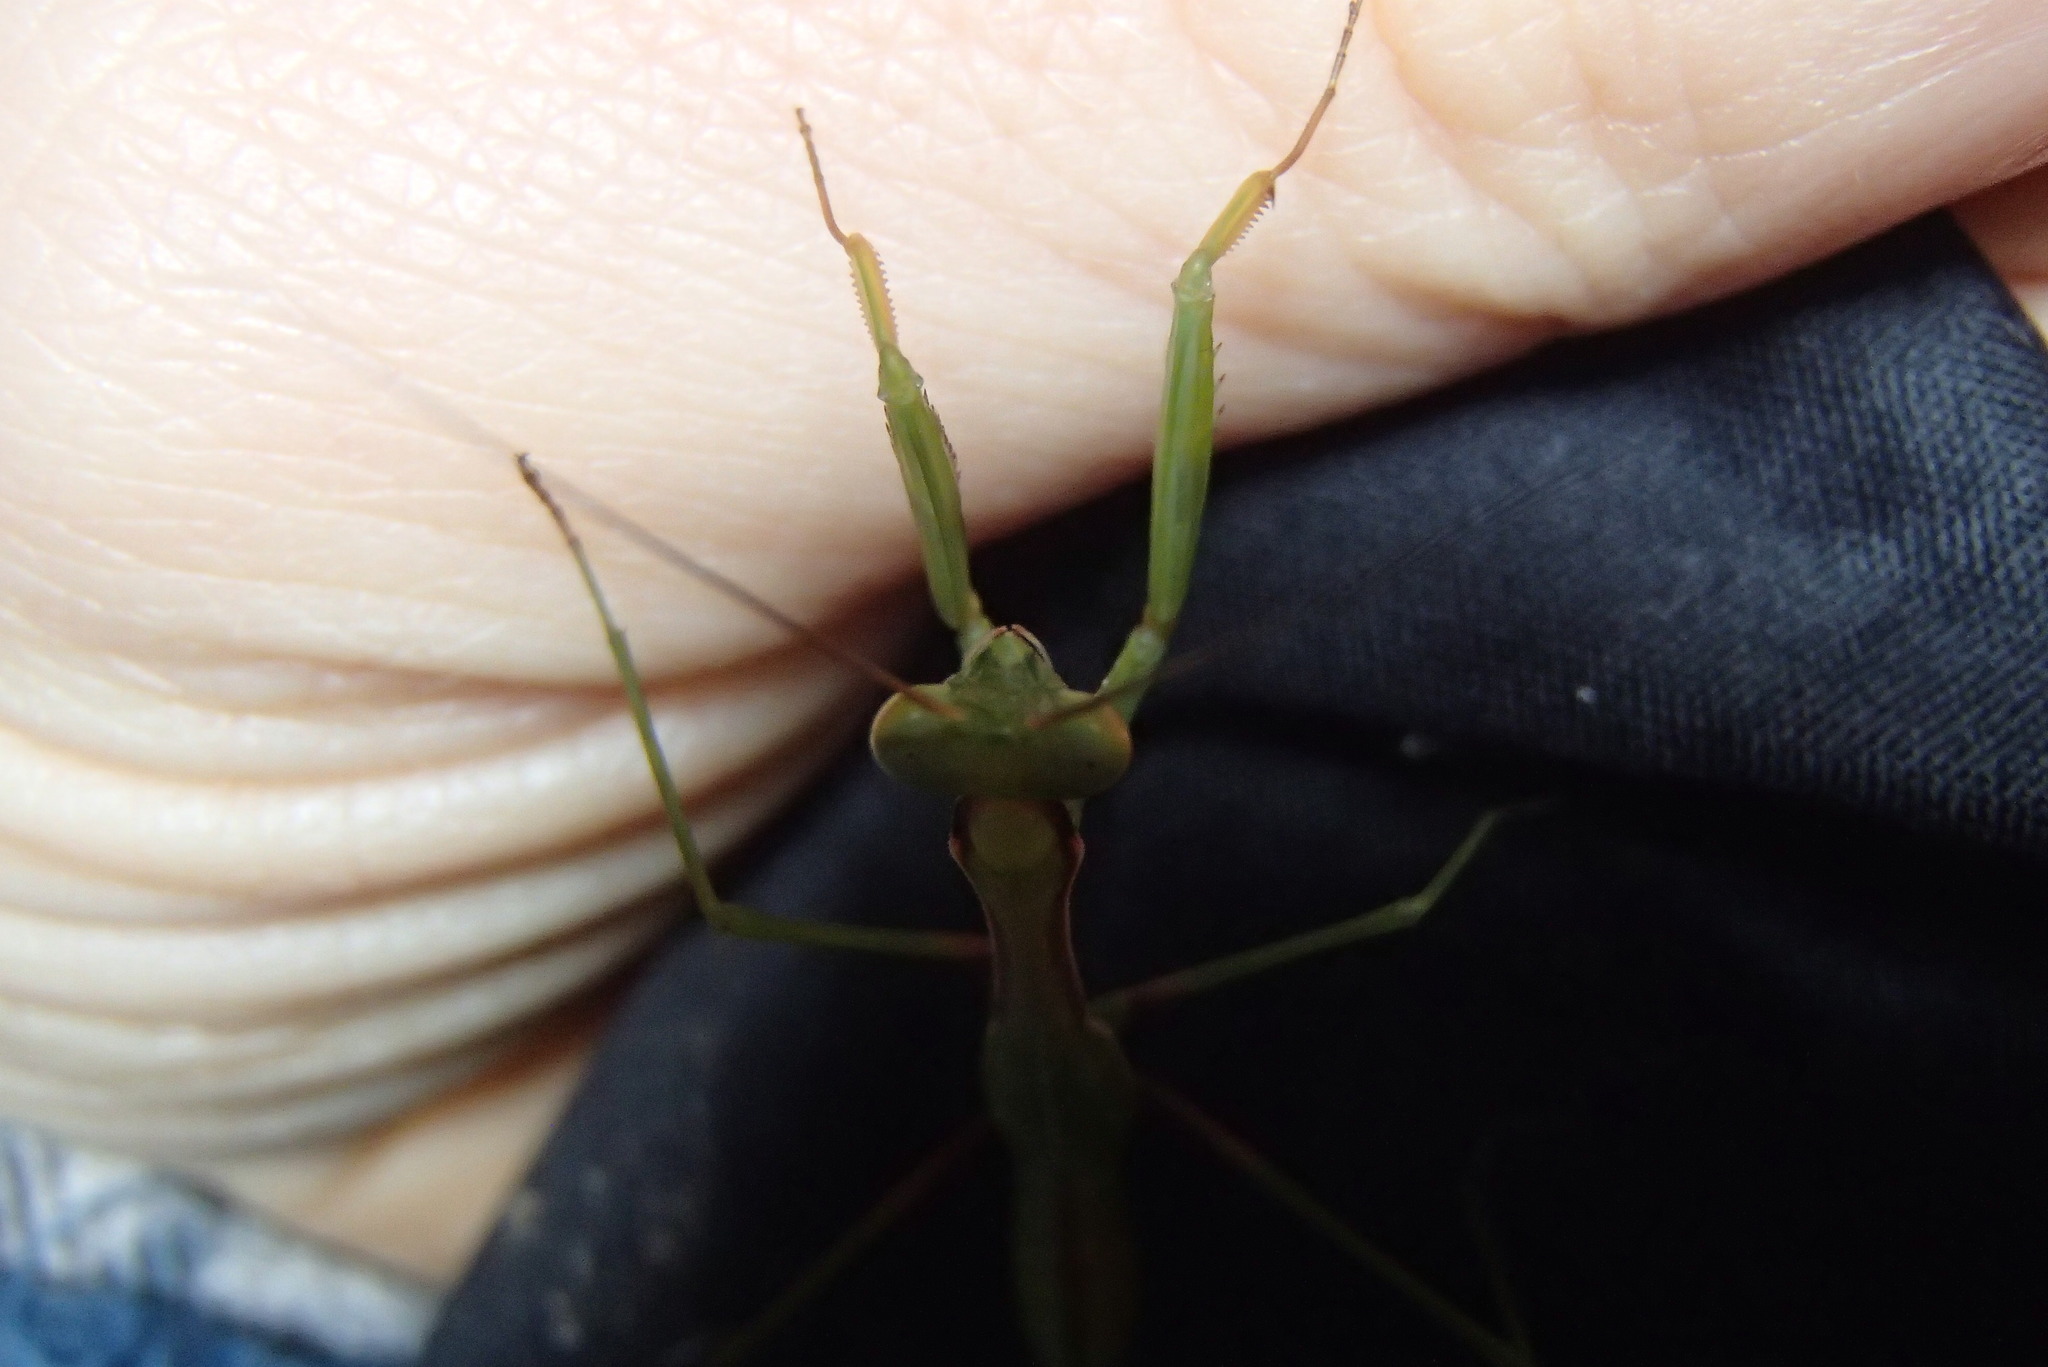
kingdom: Animalia
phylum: Arthropoda
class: Insecta
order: Mantodea
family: Mantidae
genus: Pseudomantis
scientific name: Pseudomantis albofimbriata
